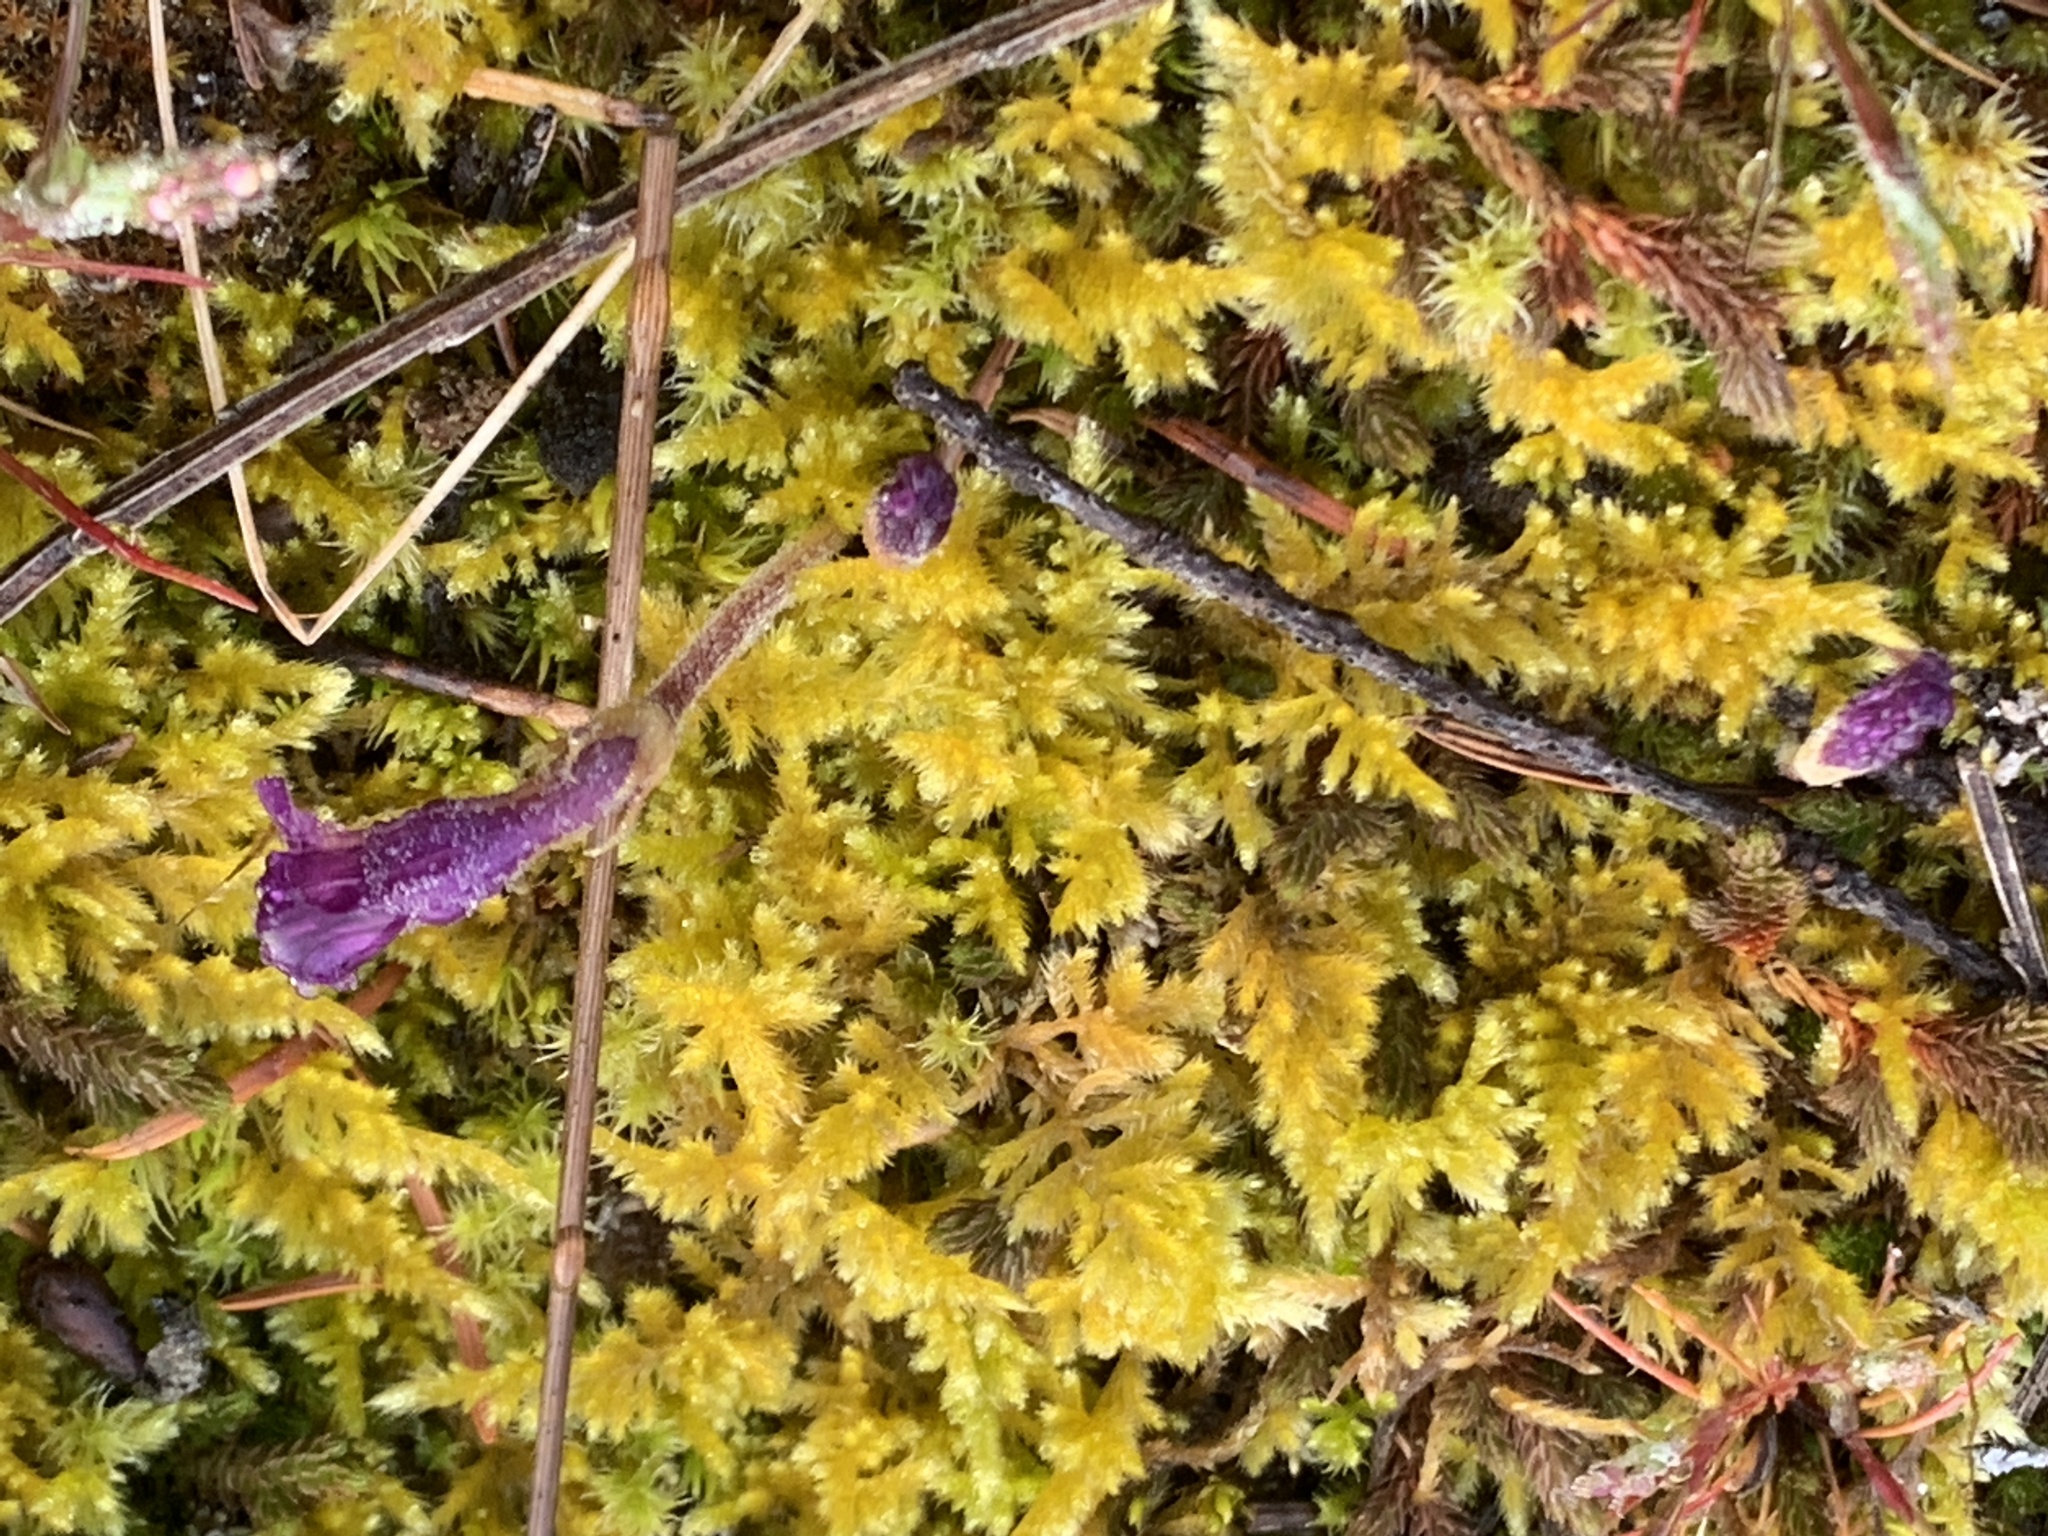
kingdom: Plantae
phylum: Tracheophyta
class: Magnoliopsida
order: Lamiales
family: Orobanchaceae
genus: Aphyllon
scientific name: Aphyllon uniflorum
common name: One-flowered broomrape
